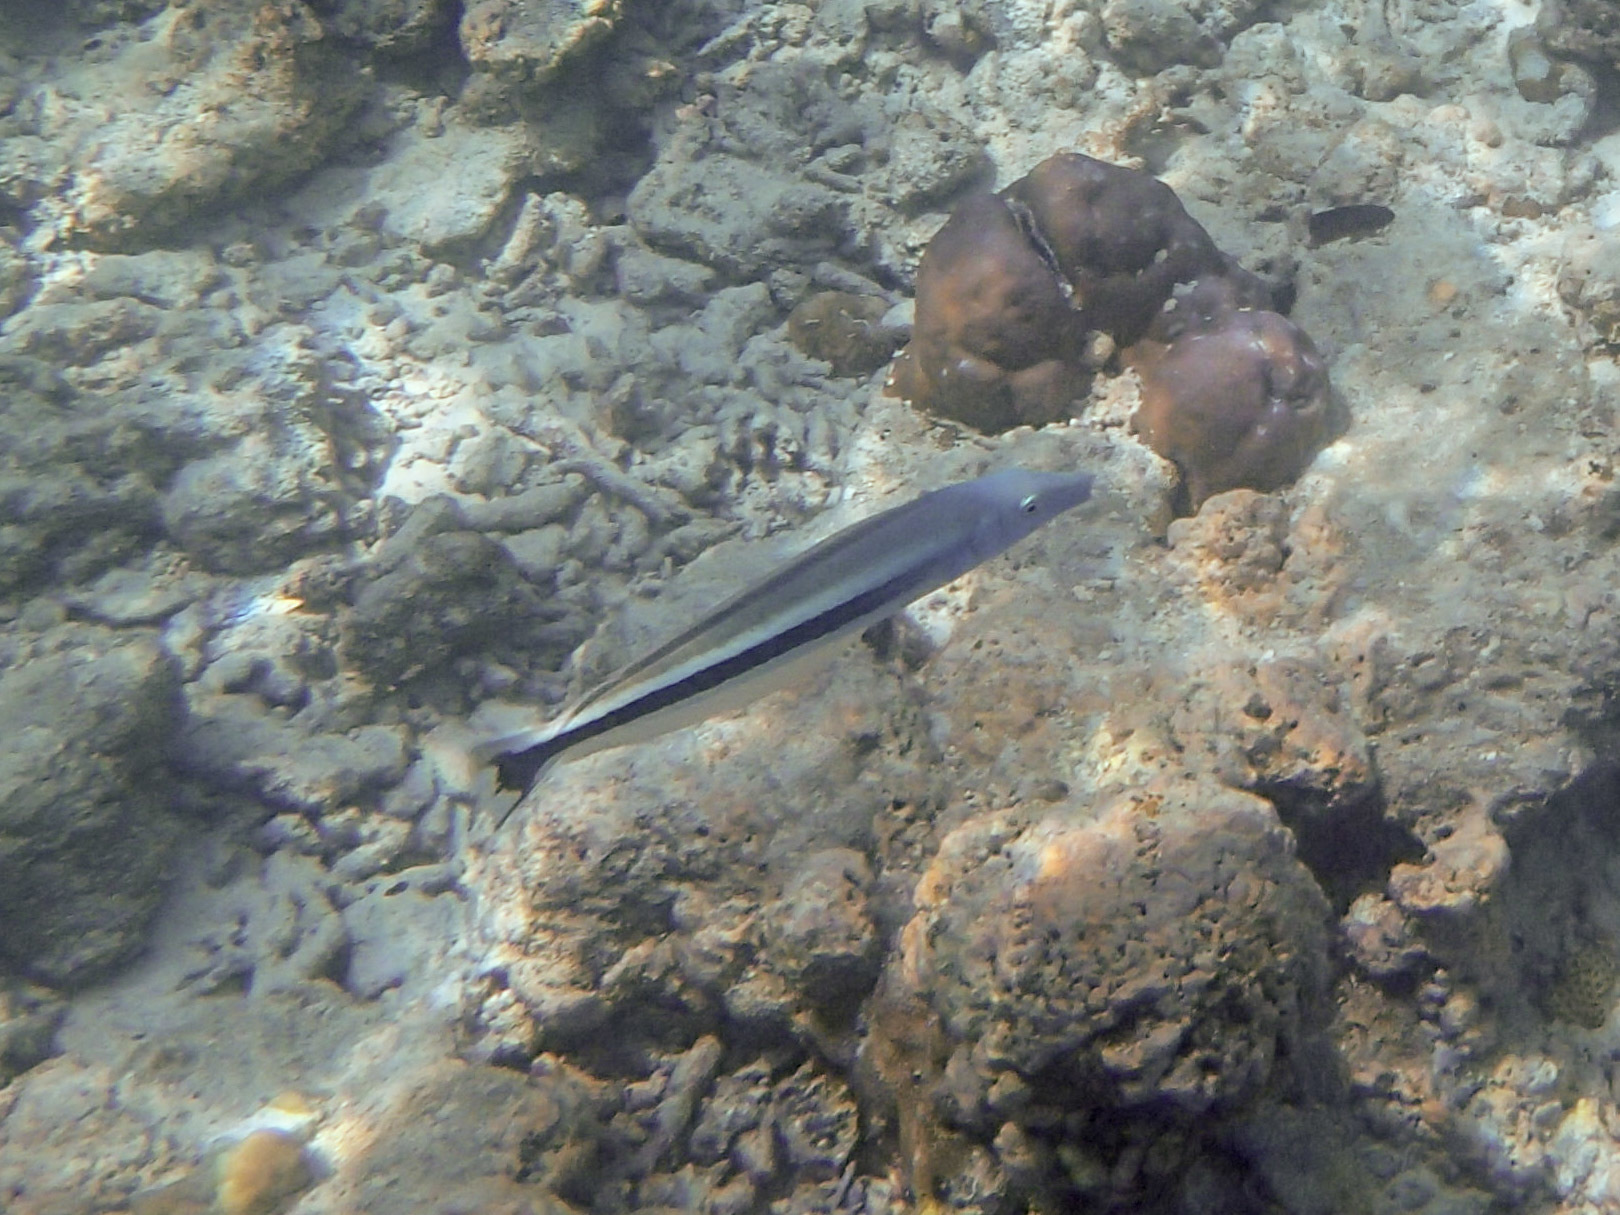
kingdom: Animalia
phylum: Chordata
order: Perciformes
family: Malacanthidae
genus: Malacanthus
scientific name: Malacanthus latovittatus
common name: Blue blanquillo
